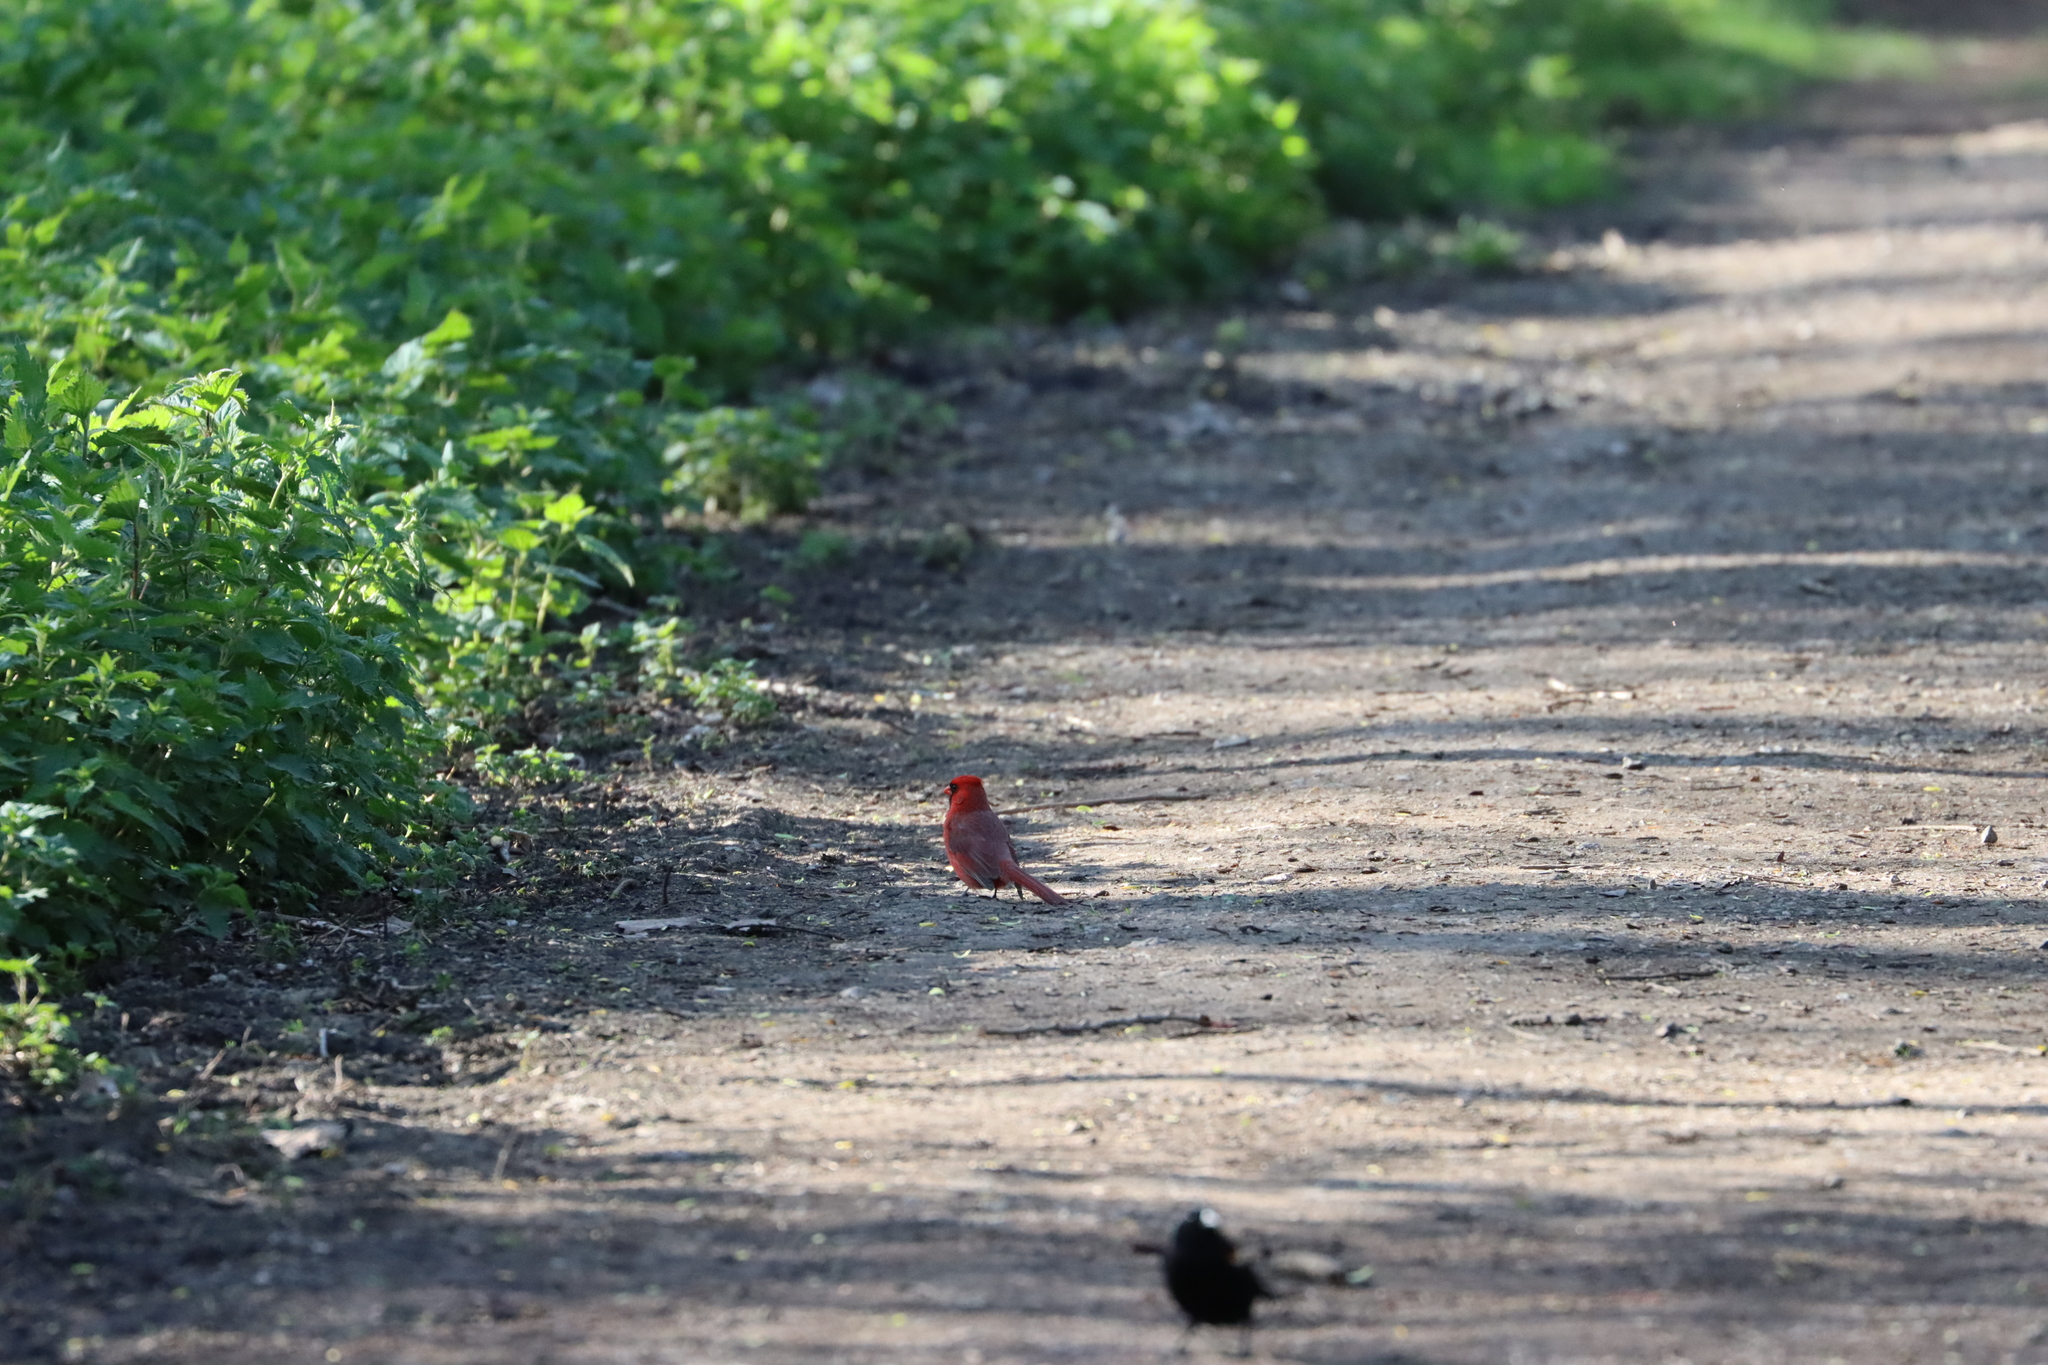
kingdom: Animalia
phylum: Chordata
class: Aves
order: Passeriformes
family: Cardinalidae
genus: Cardinalis
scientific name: Cardinalis cardinalis
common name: Northern cardinal
